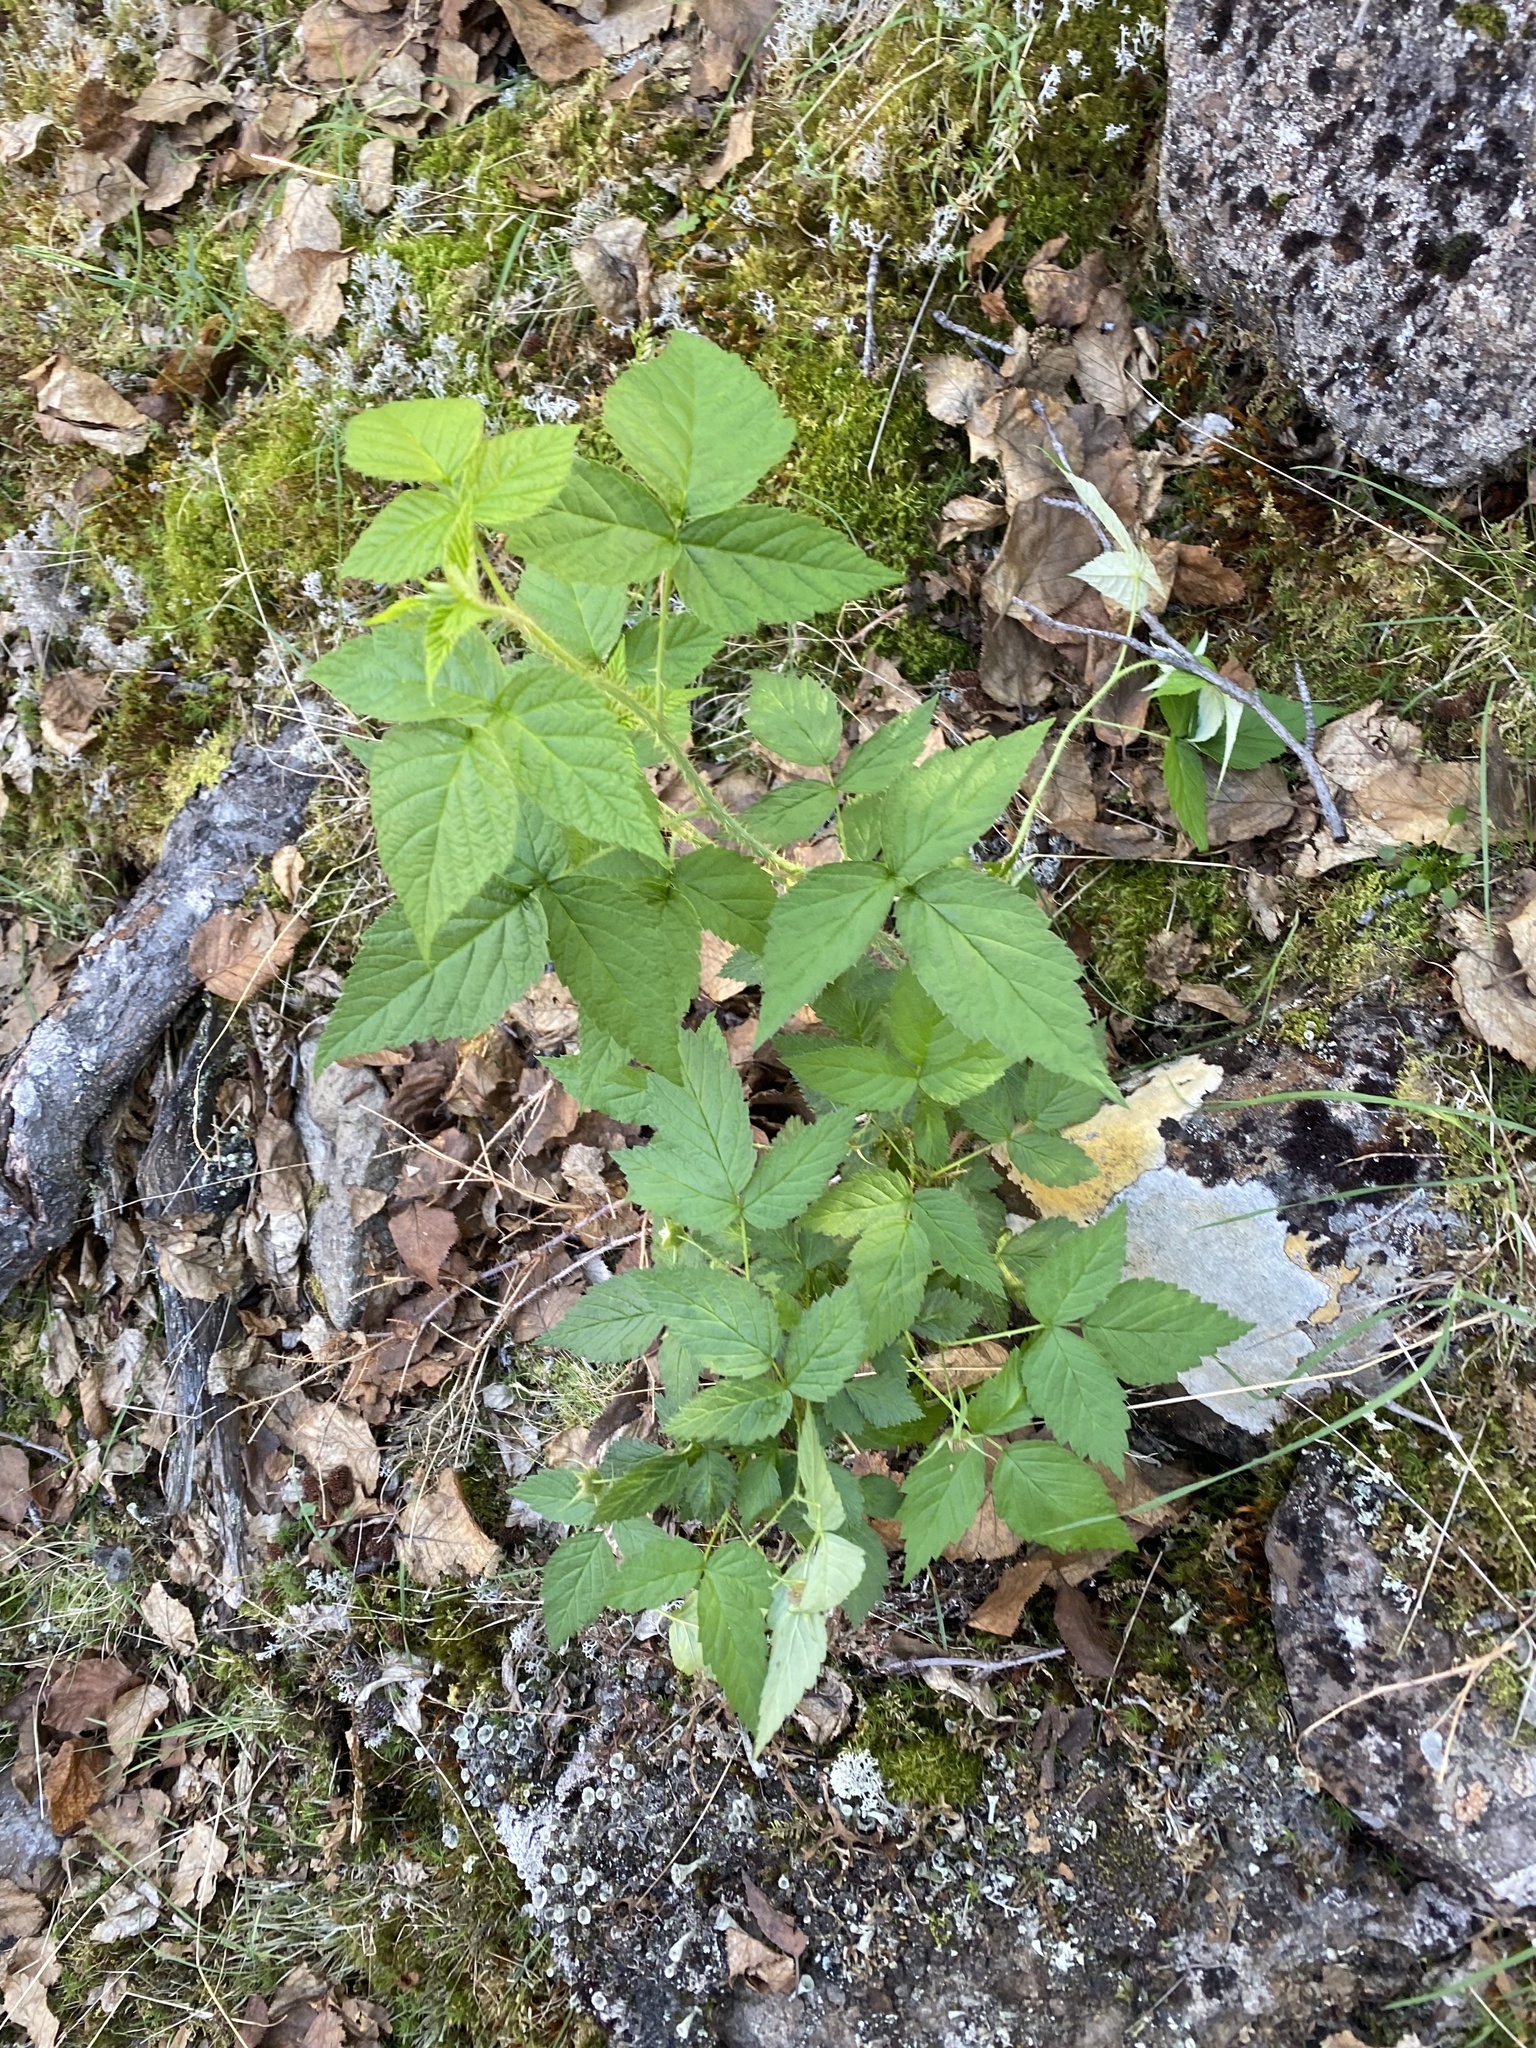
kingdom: Plantae
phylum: Tracheophyta
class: Magnoliopsida
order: Rosales
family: Rosaceae
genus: Rubus
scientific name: Rubus sachalinensis
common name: Red raspberry
